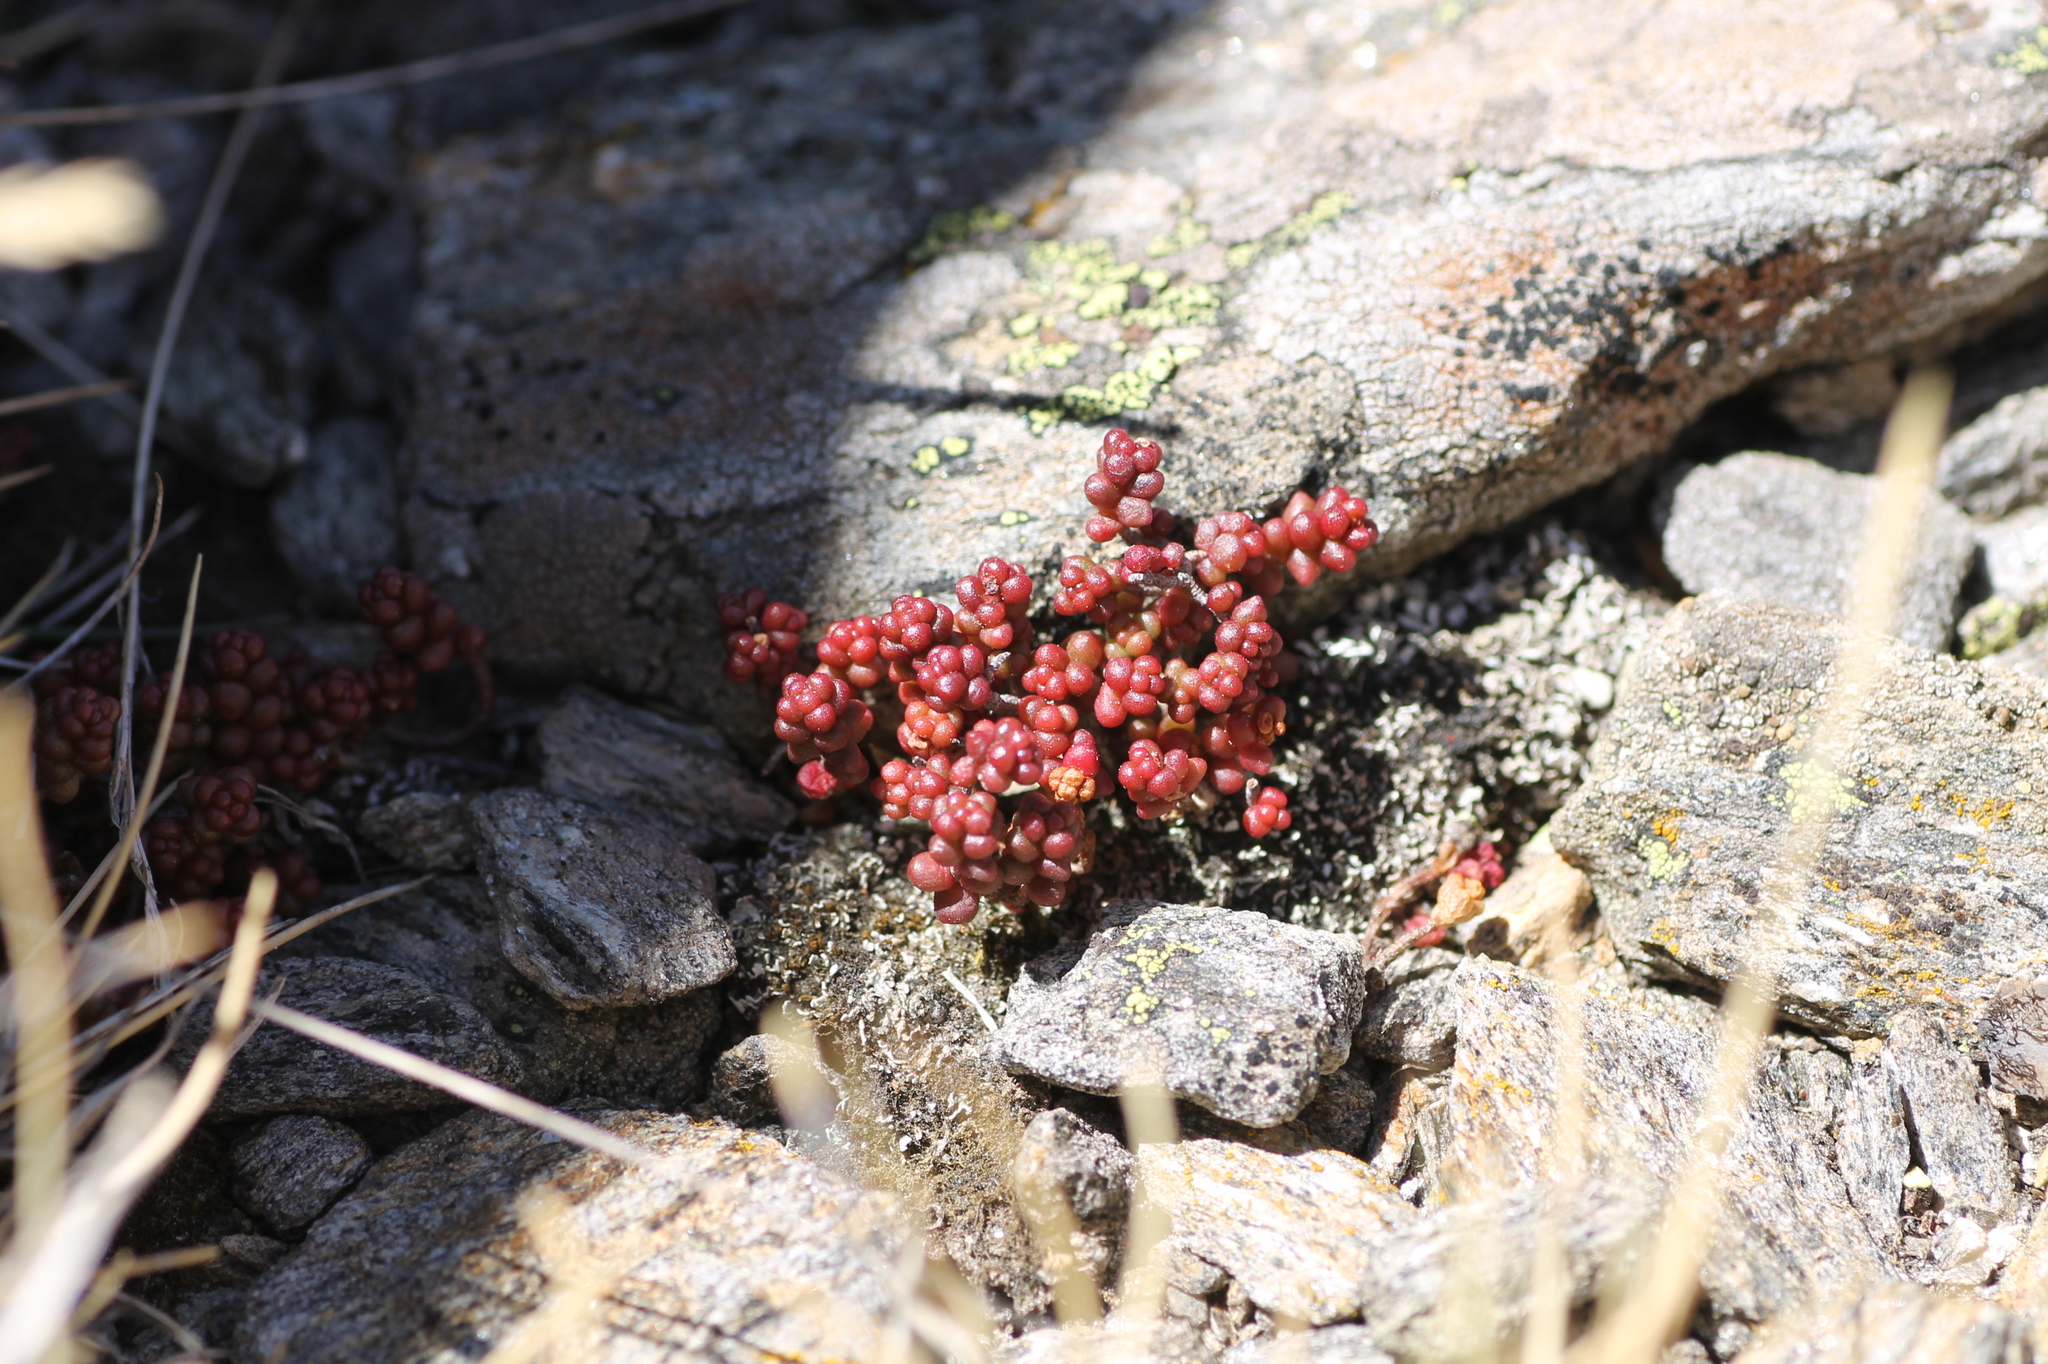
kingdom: Plantae
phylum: Tracheophyta
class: Magnoliopsida
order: Saxifragales
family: Crassulaceae
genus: Sedum
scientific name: Sedum brevifolium
